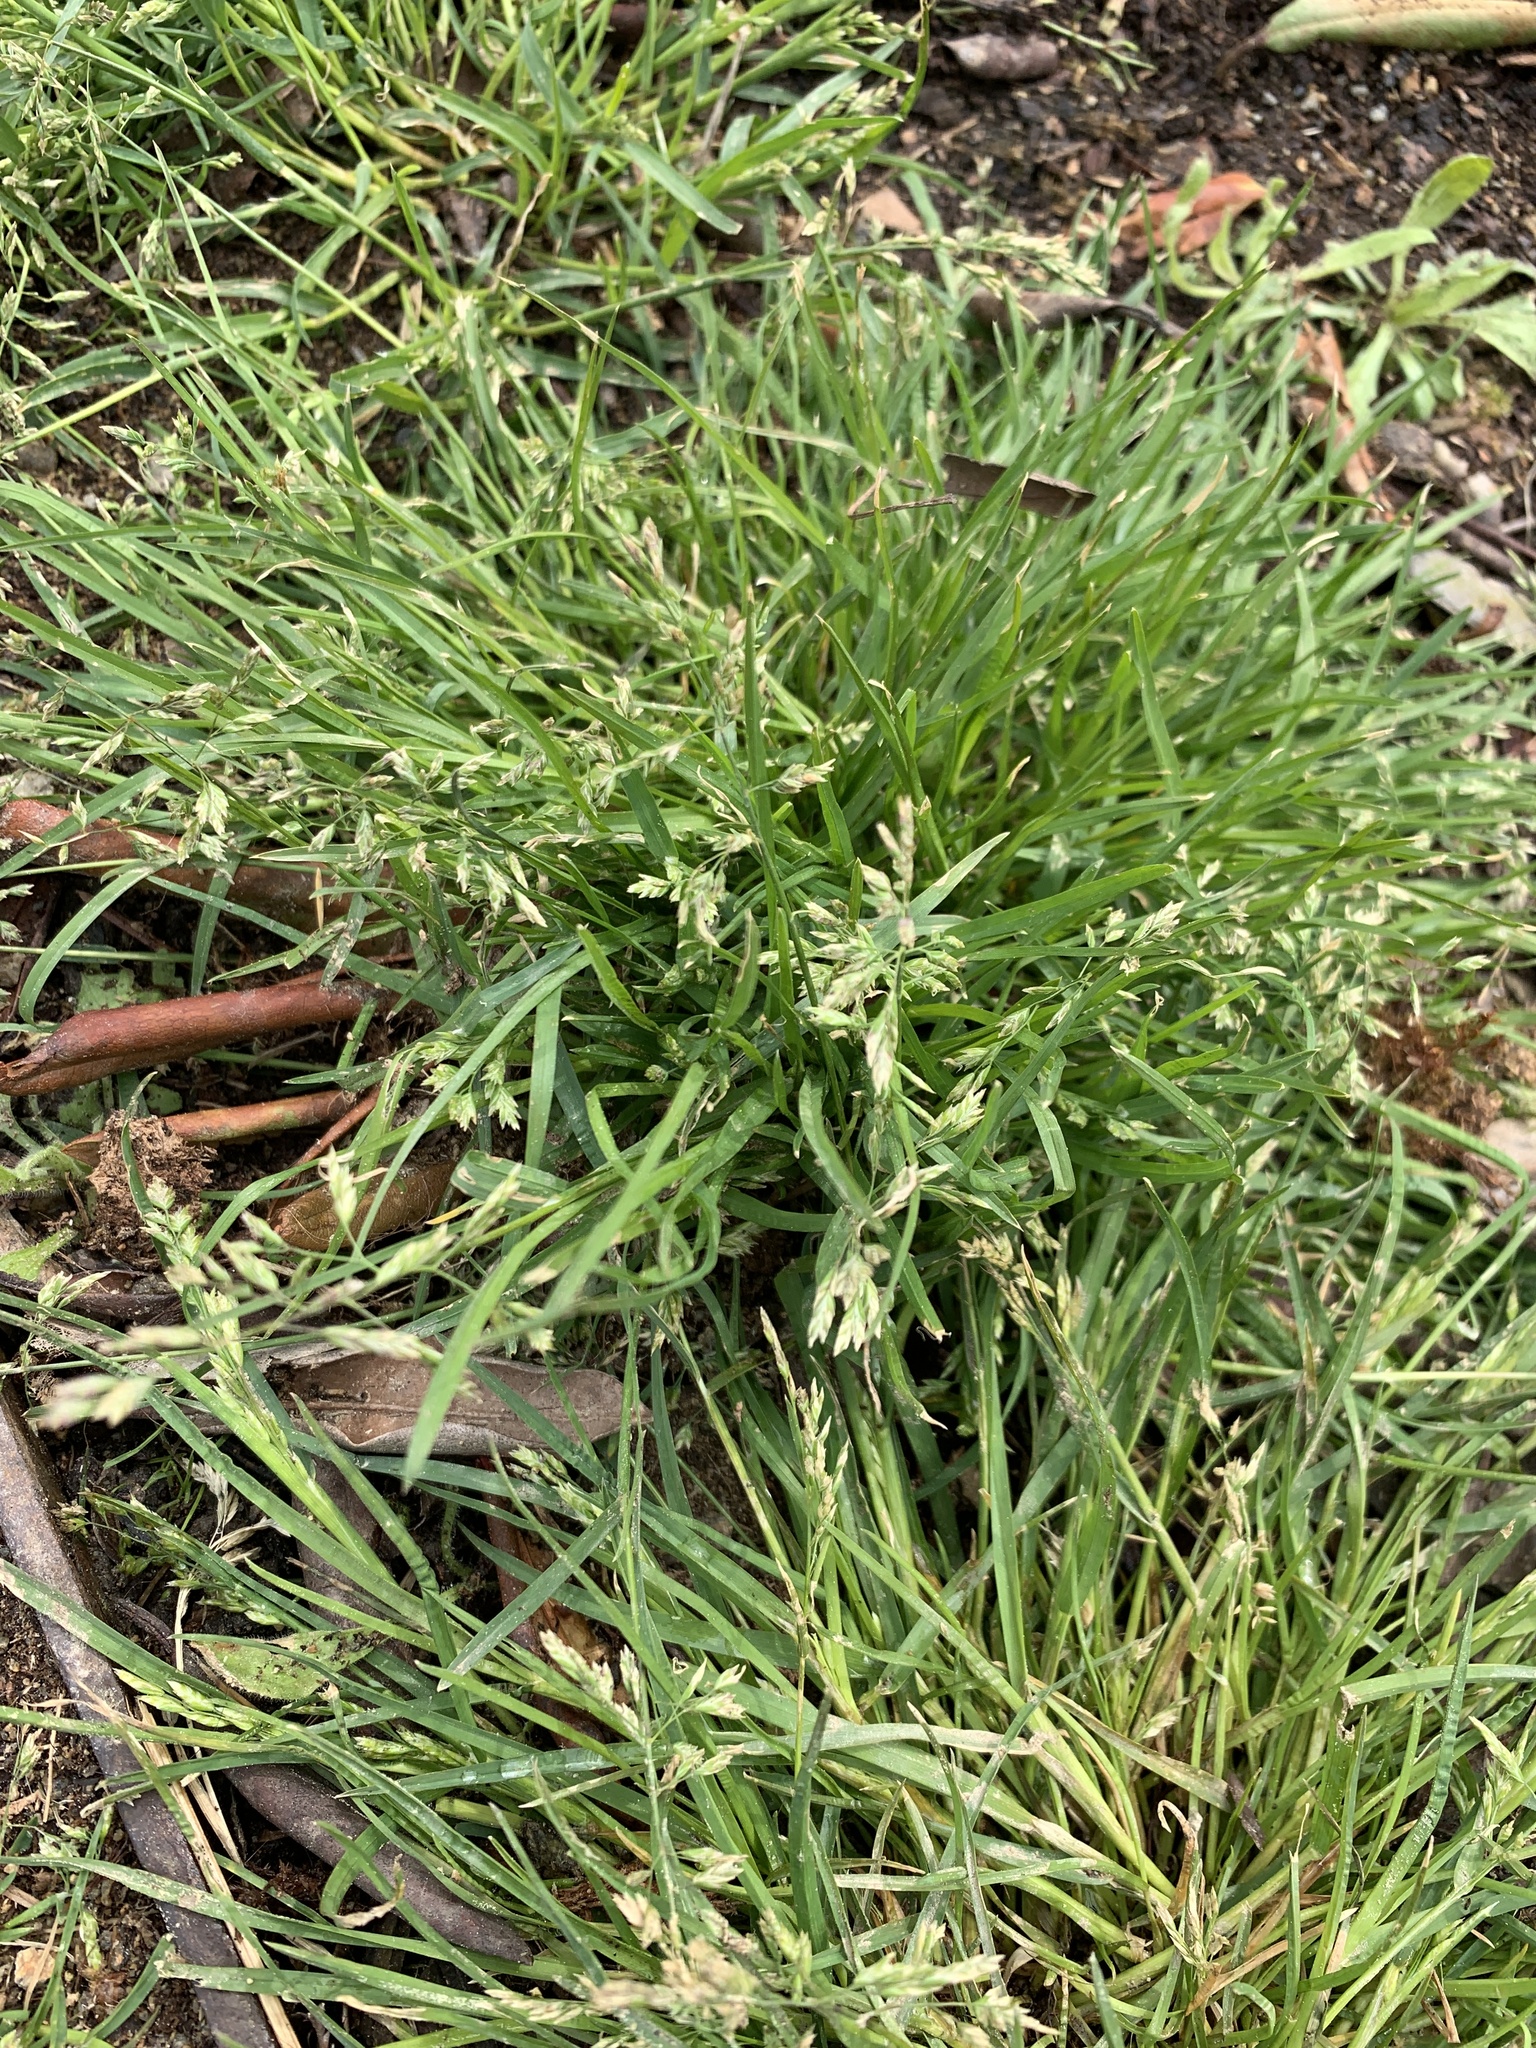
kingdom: Plantae
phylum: Tracheophyta
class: Liliopsida
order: Poales
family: Poaceae
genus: Poa
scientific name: Poa annua
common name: Annual bluegrass
